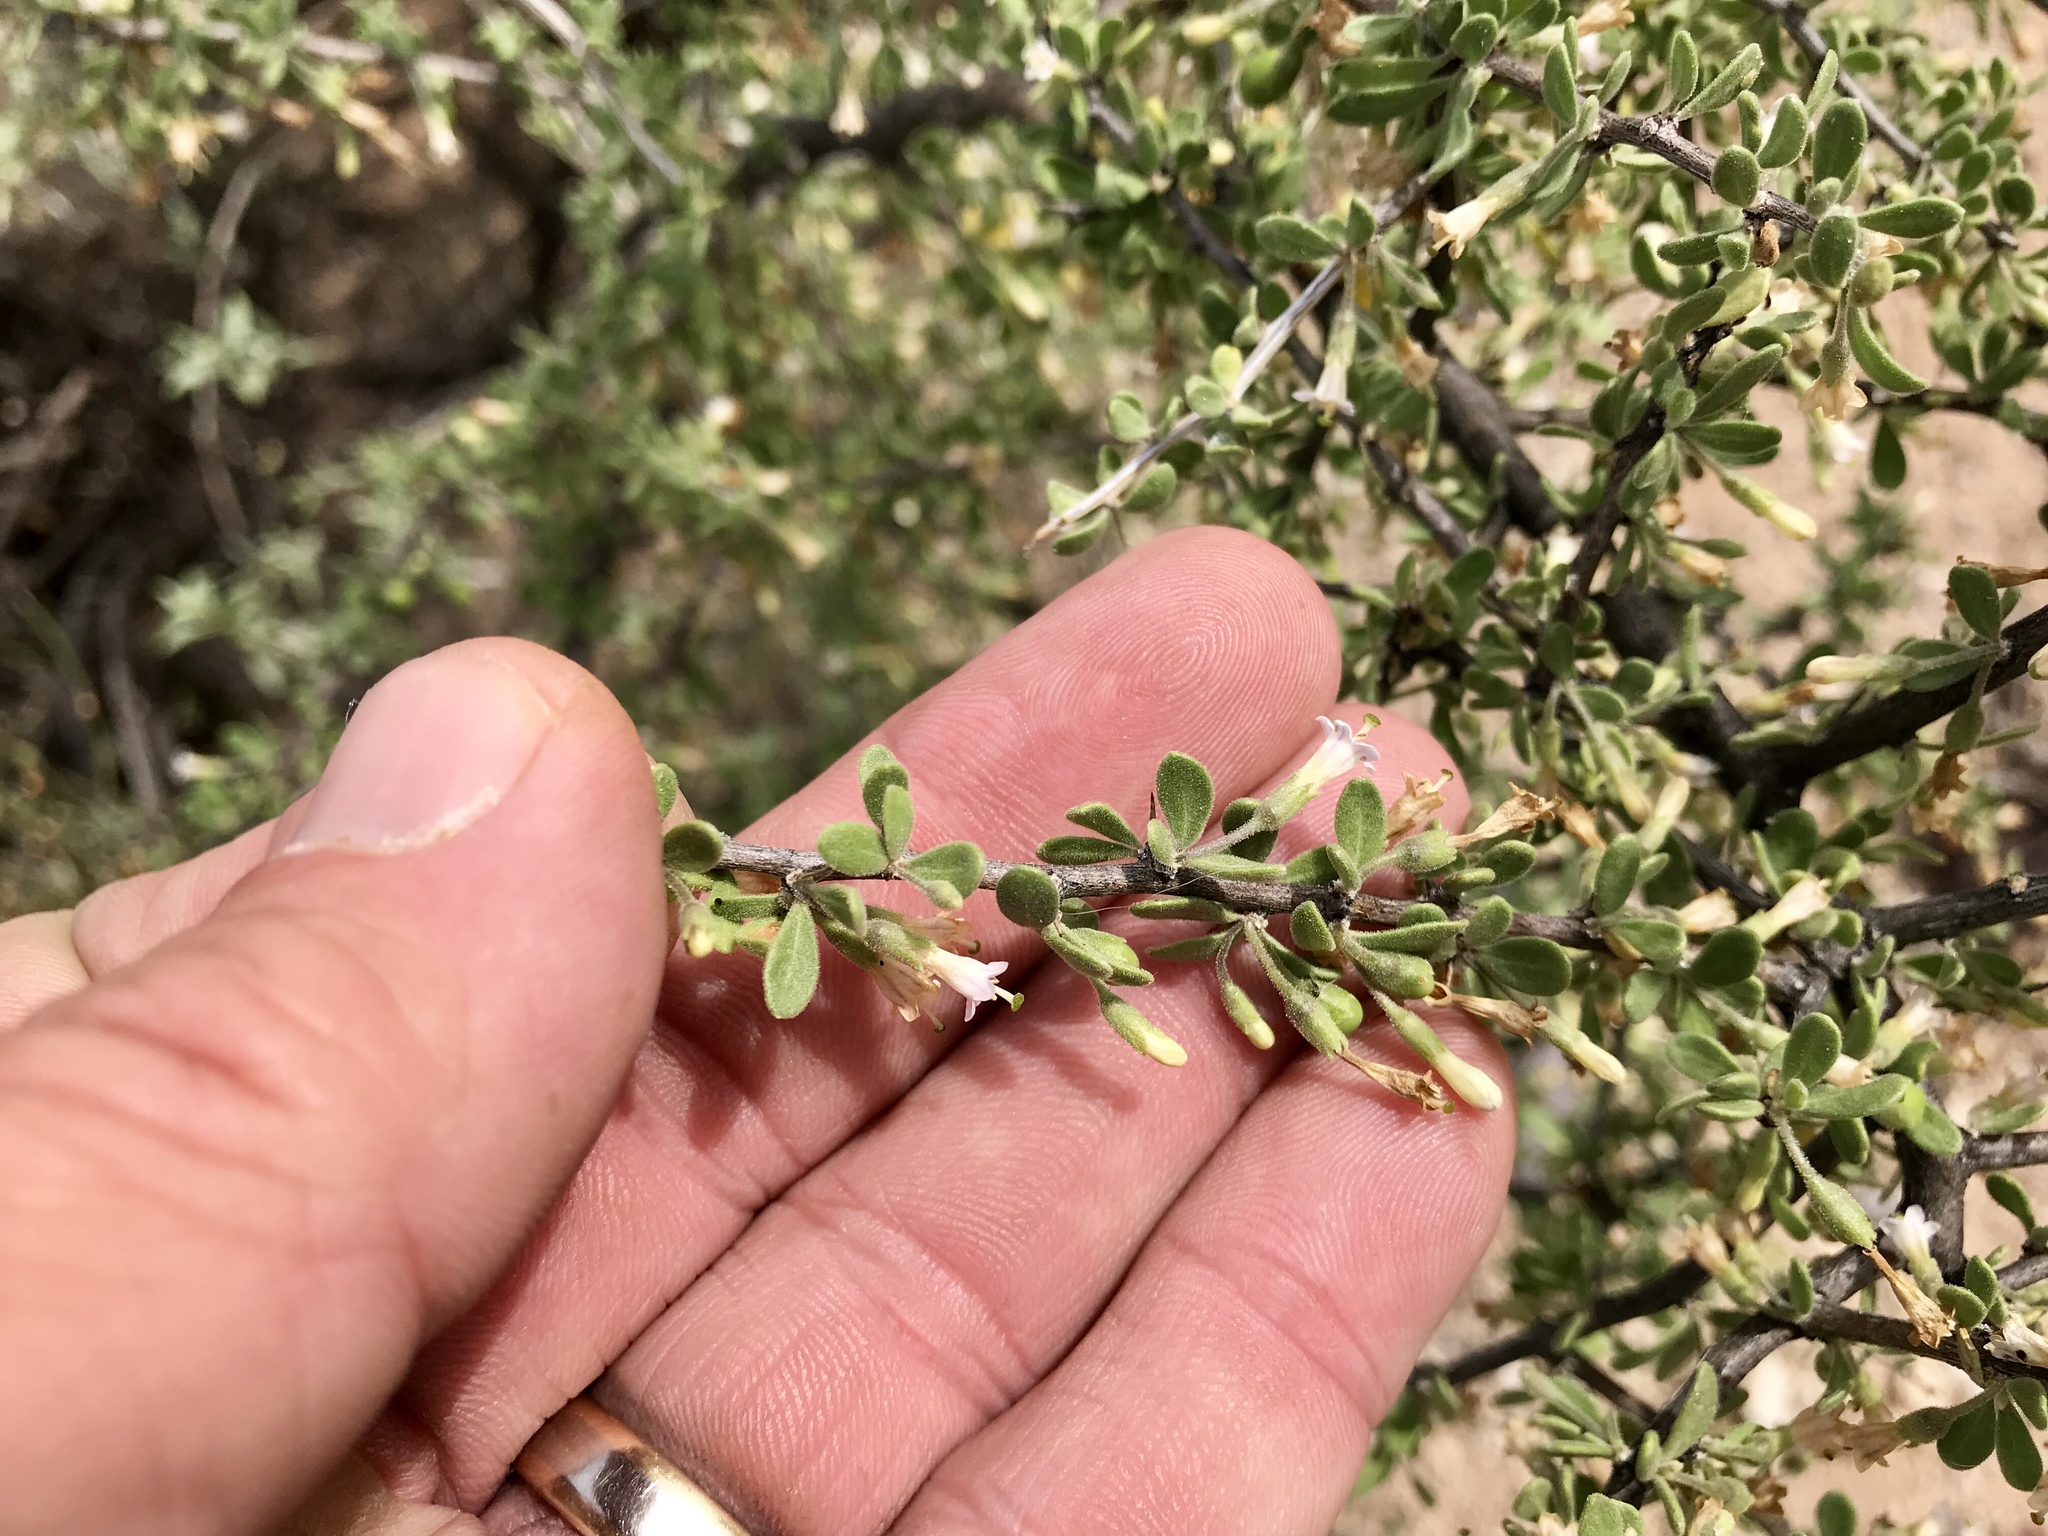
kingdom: Plantae
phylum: Tracheophyta
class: Magnoliopsida
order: Solanales
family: Solanaceae
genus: Lycium
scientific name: Lycium exsertum
